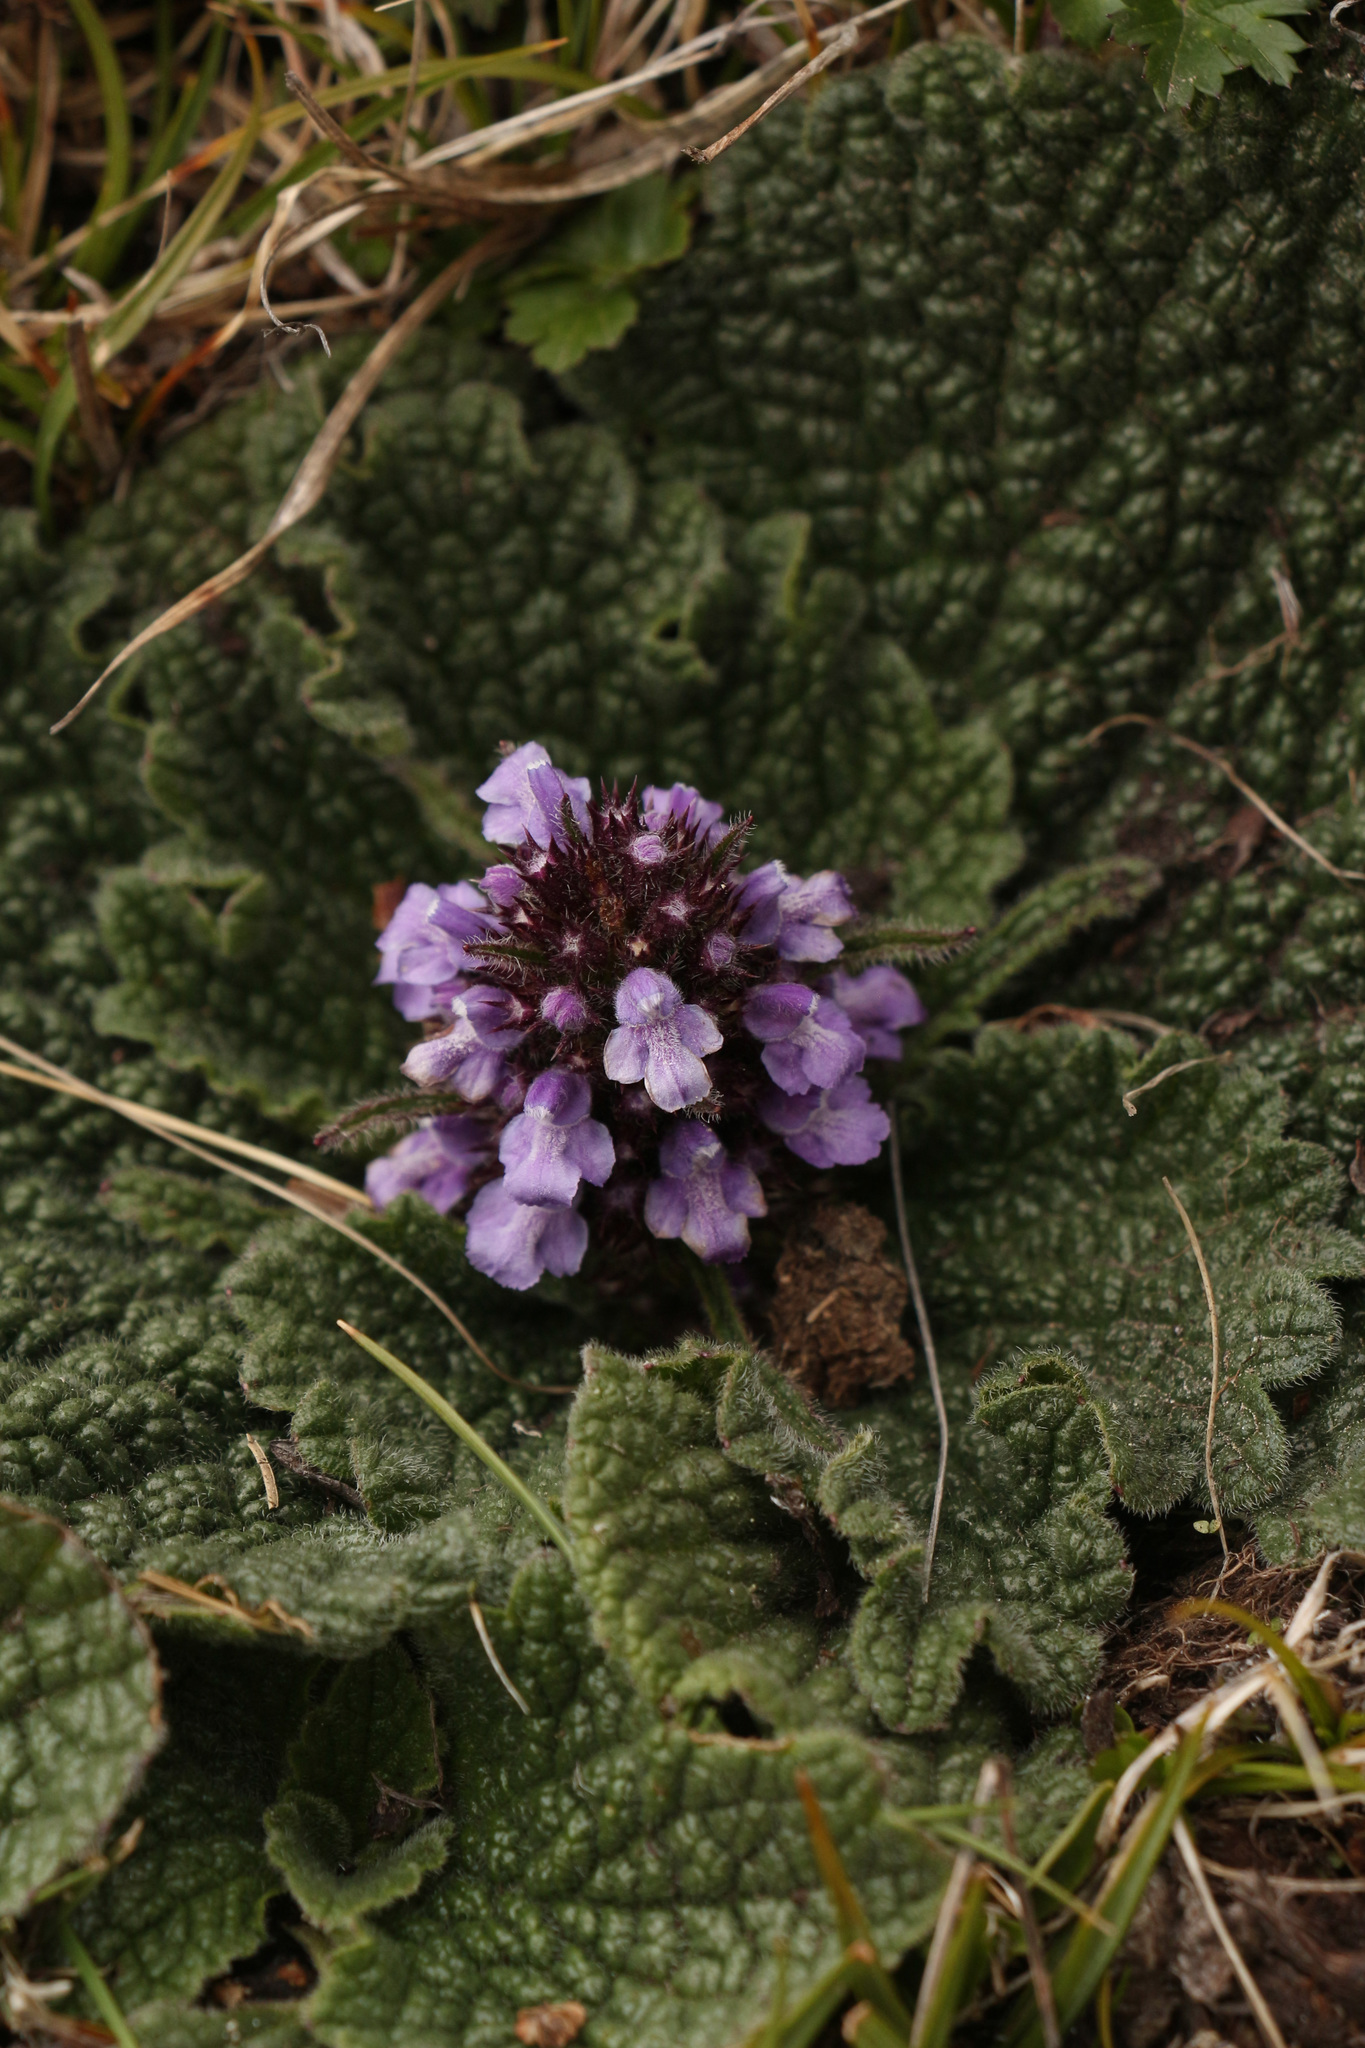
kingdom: Plantae
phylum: Tracheophyta
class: Magnoliopsida
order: Lamiales
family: Lamiaceae
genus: Phlomoides
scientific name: Phlomoides rotata
